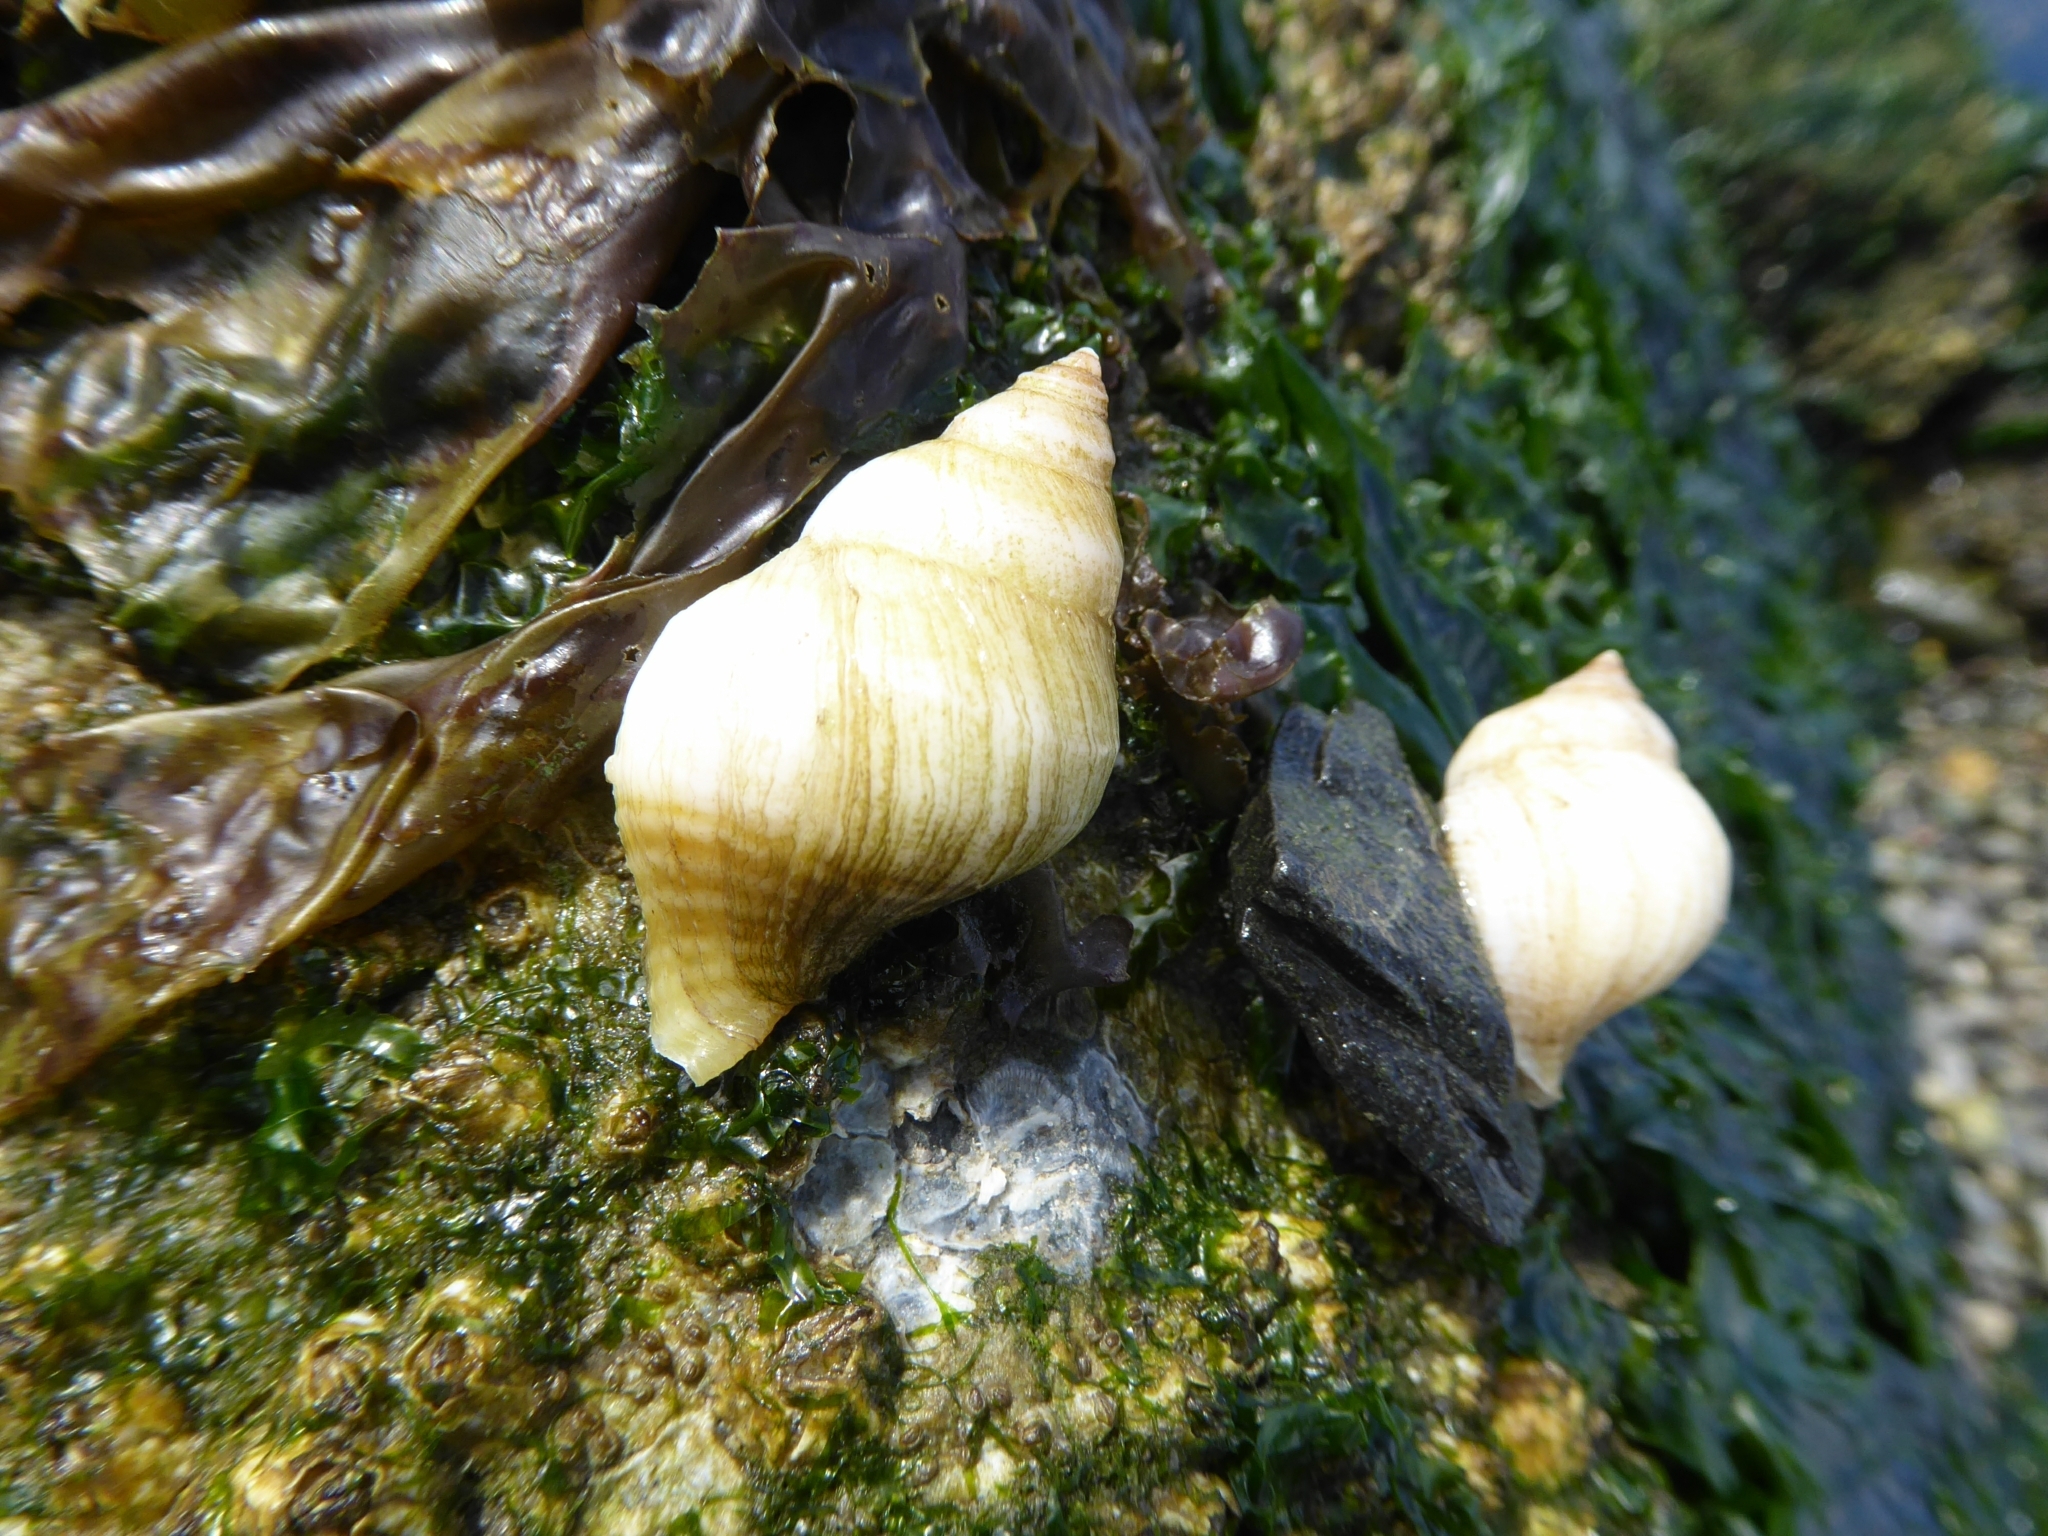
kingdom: Animalia
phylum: Mollusca
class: Gastropoda
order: Neogastropoda
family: Muricidae
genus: Nucella
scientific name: Nucella lamellosa
